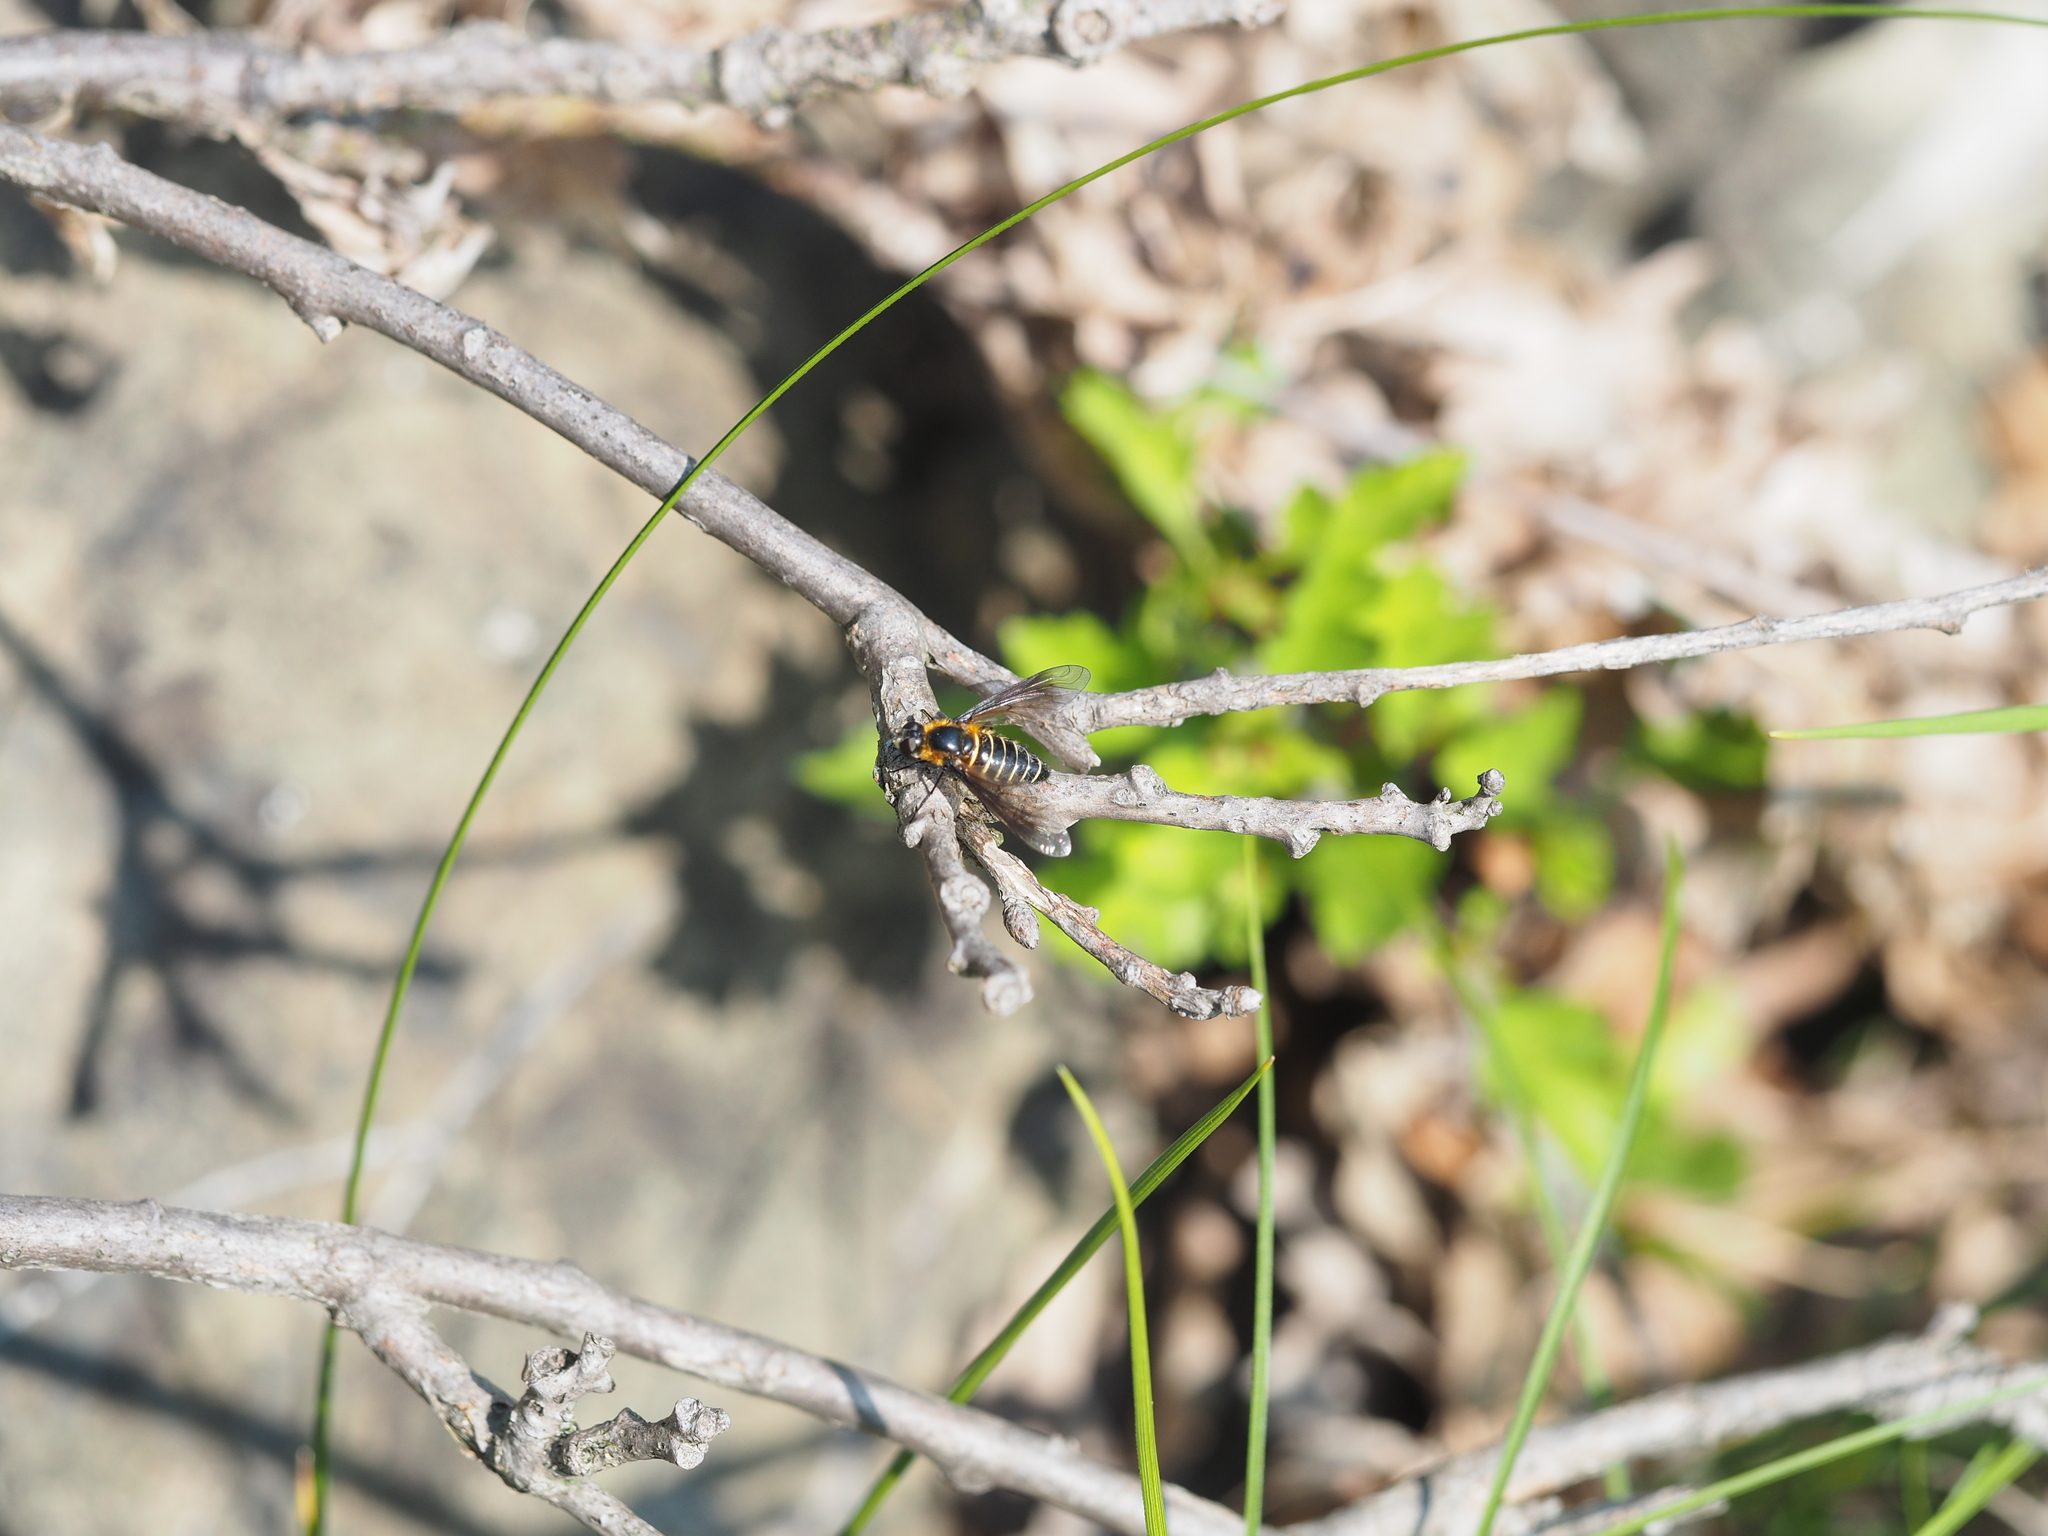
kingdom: Animalia
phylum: Arthropoda
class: Insecta
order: Diptera
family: Bombyliidae
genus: Lomatia
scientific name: Lomatia sabaea
